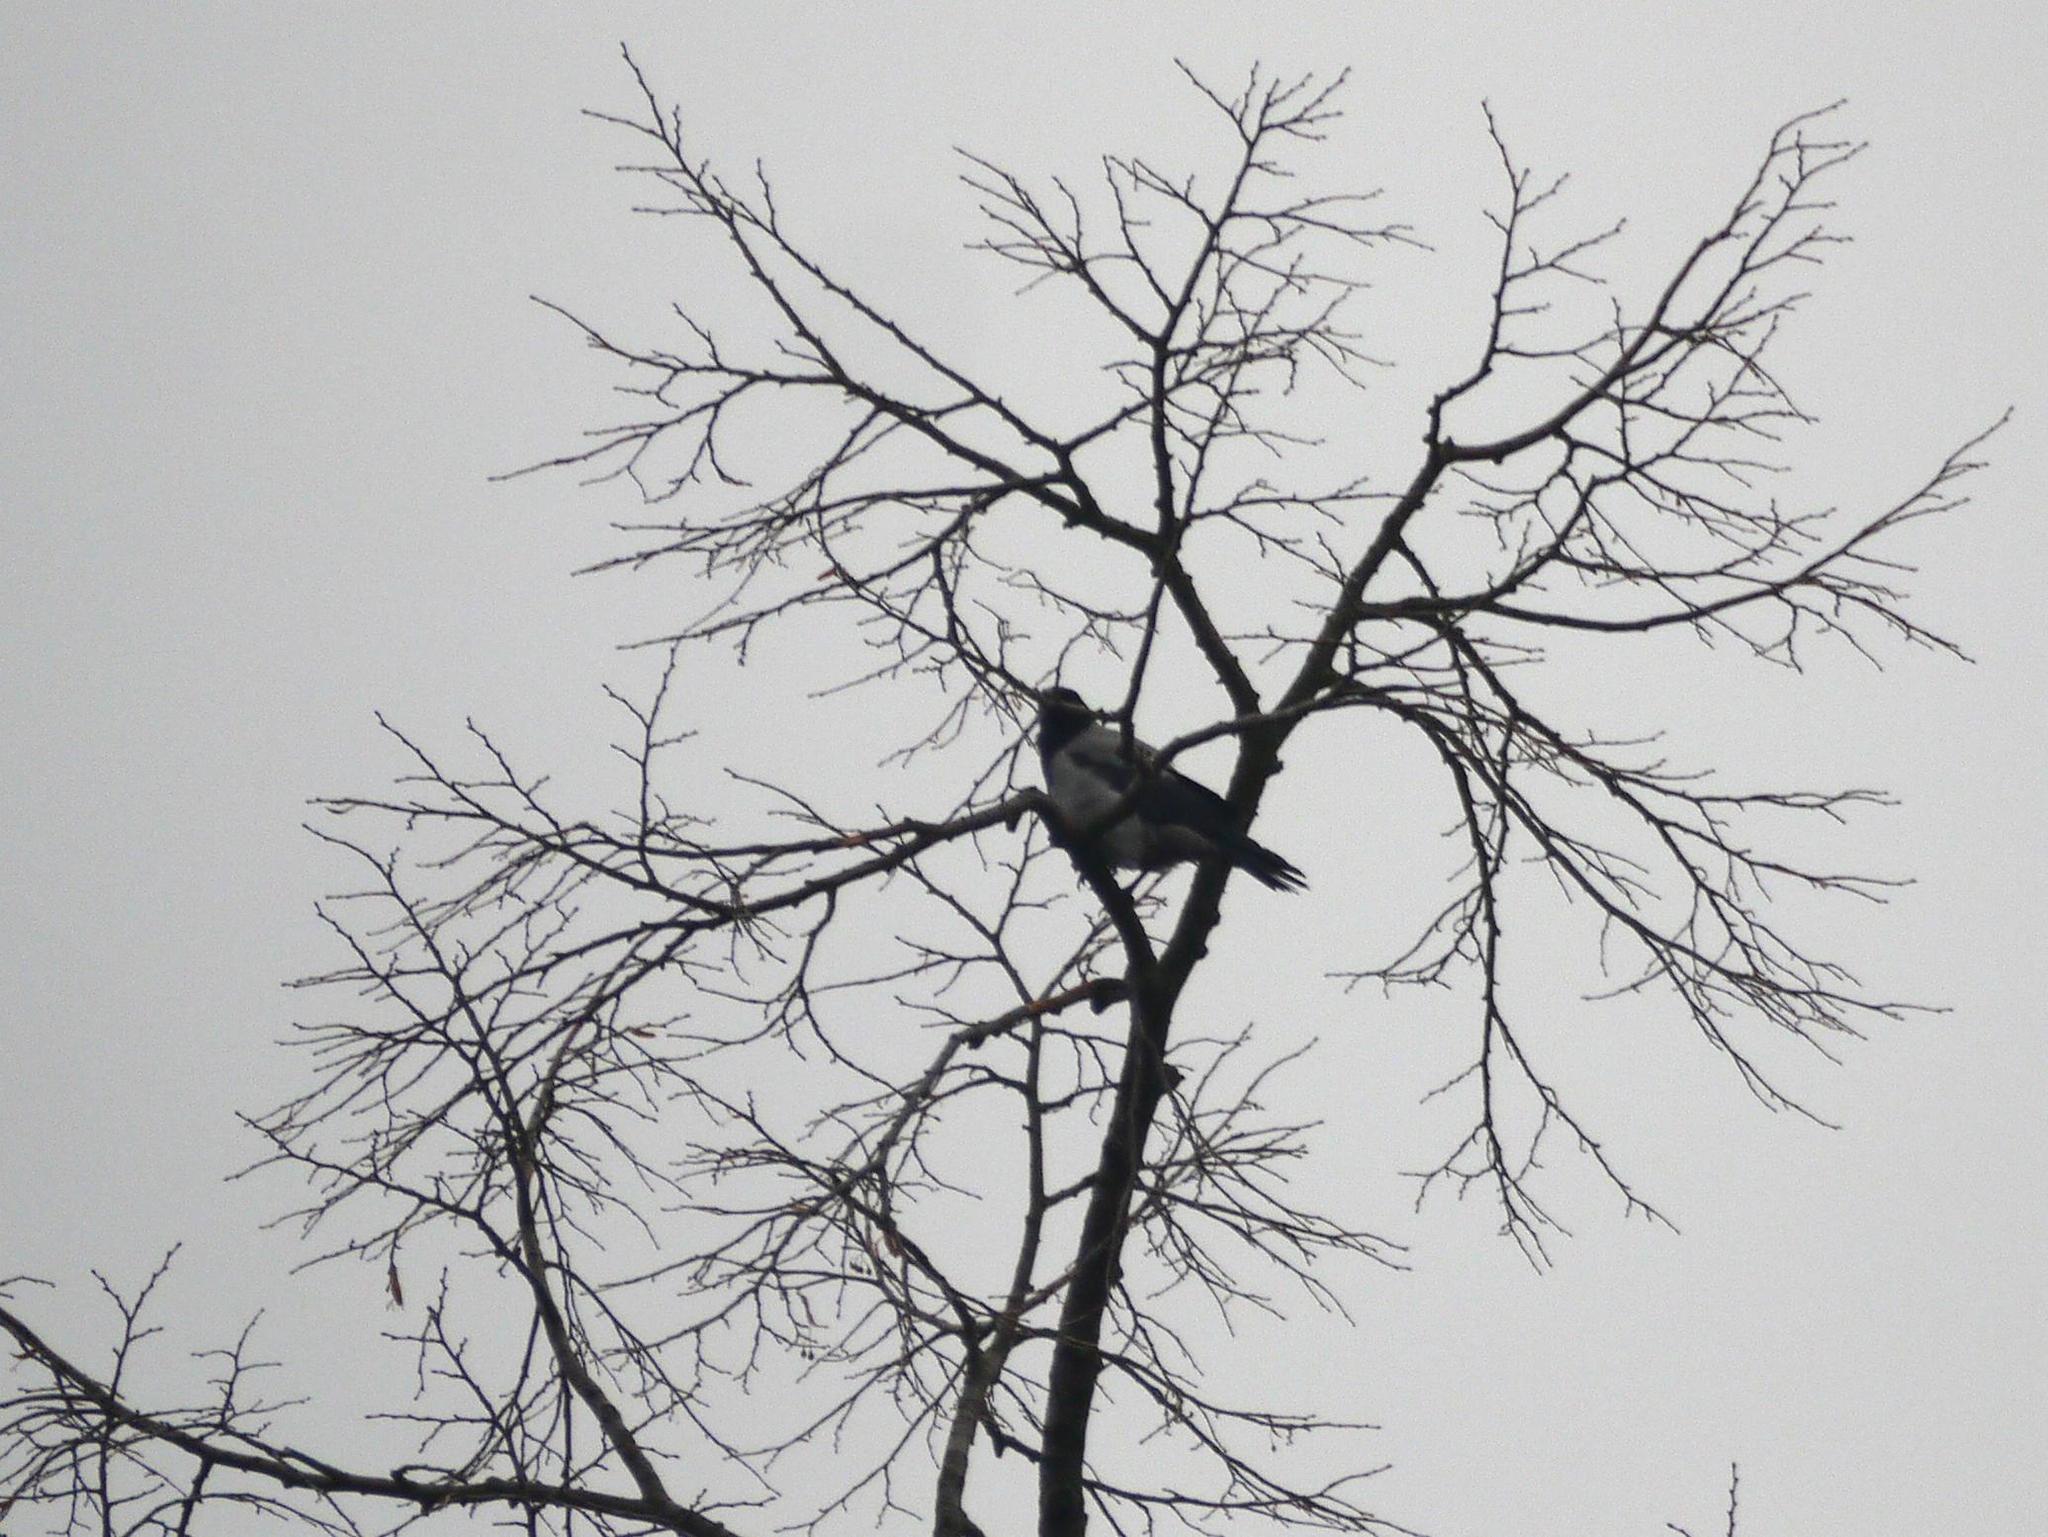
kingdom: Animalia
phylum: Chordata
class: Aves
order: Passeriformes
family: Corvidae
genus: Corvus
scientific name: Corvus cornix
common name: Hooded crow
